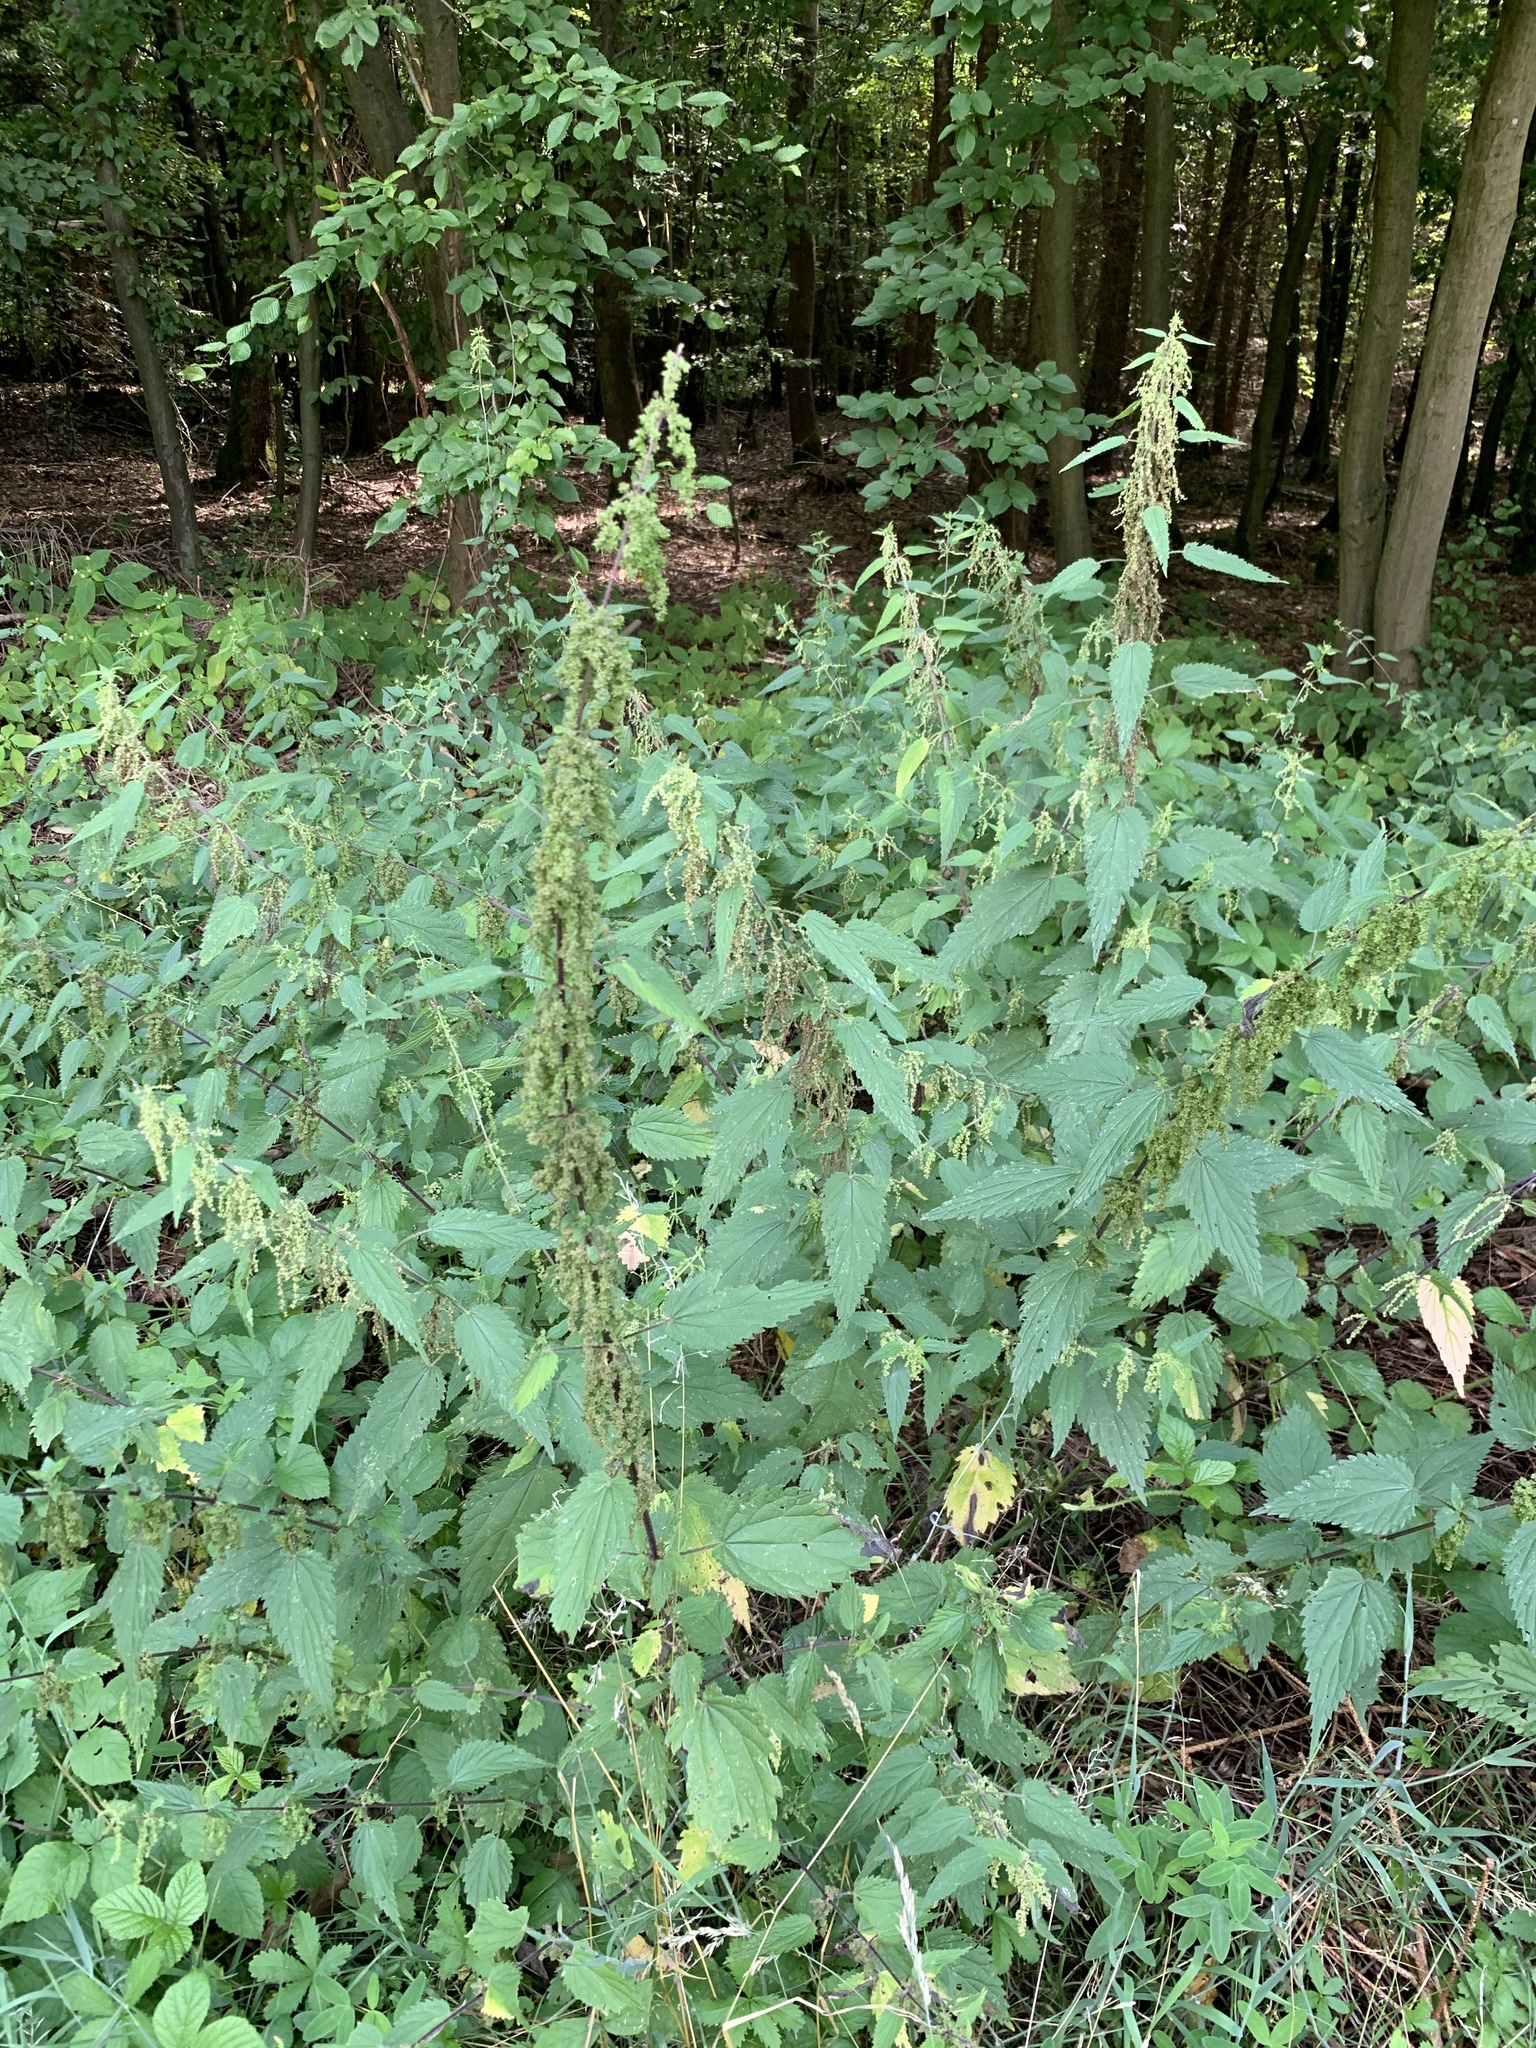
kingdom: Plantae
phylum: Tracheophyta
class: Magnoliopsida
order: Rosales
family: Urticaceae
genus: Urtica
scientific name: Urtica dioica
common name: Common nettle
